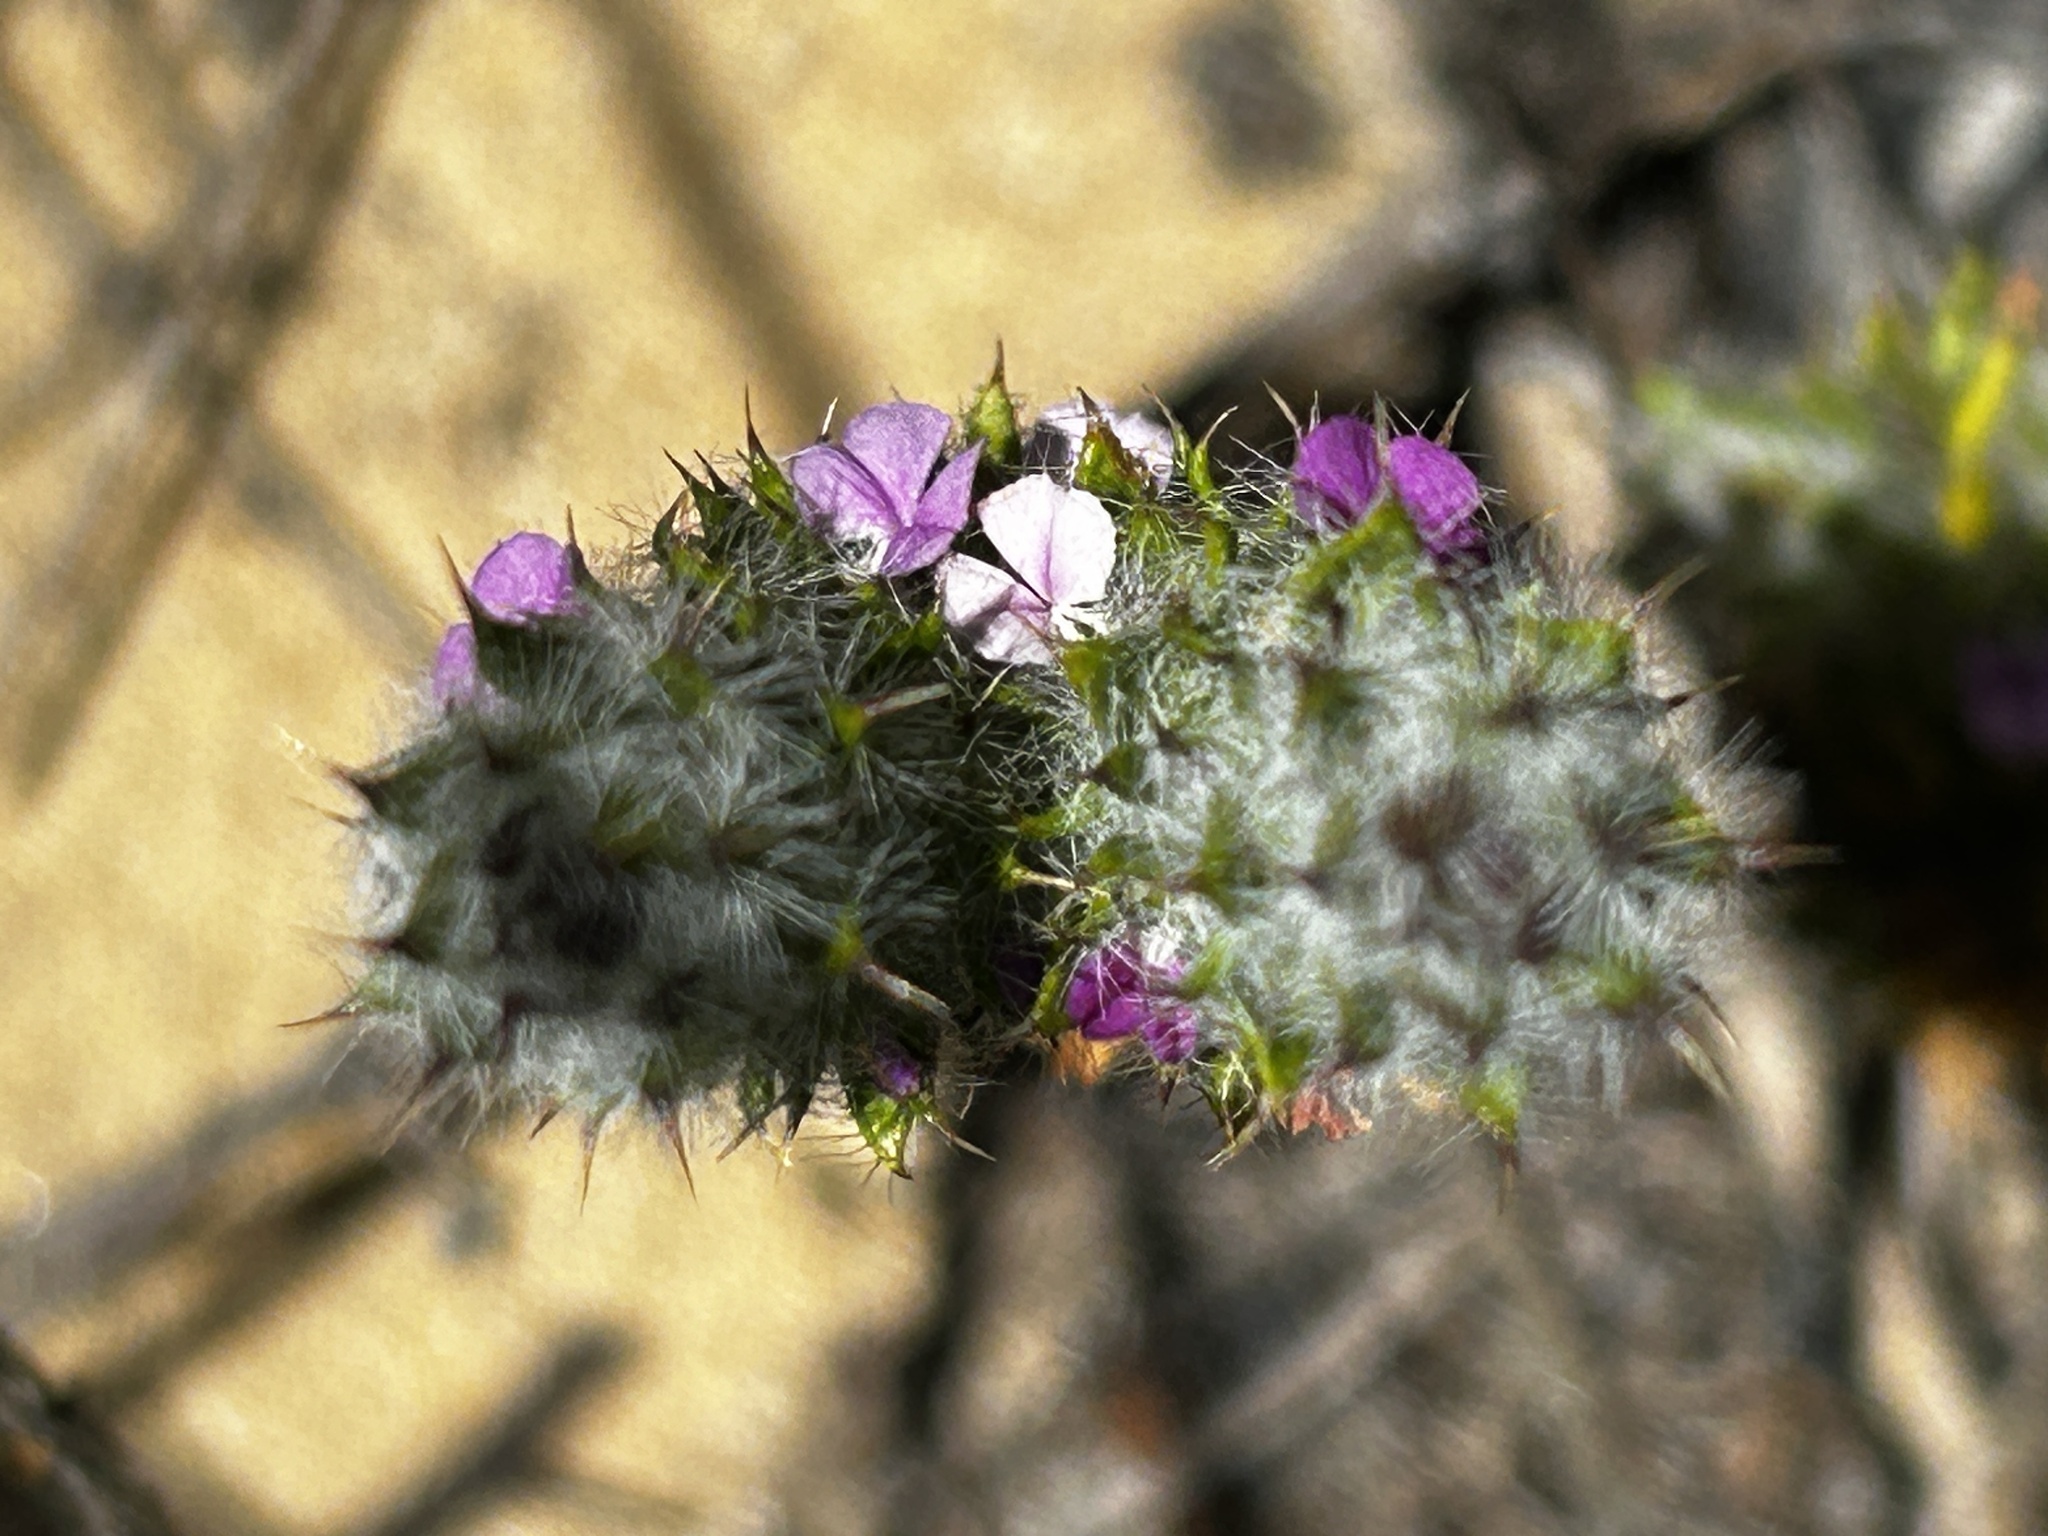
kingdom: Plantae
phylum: Tracheophyta
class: Magnoliopsida
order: Fabales
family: Polygalaceae
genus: Muraltia
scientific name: Muraltia ciliaris
